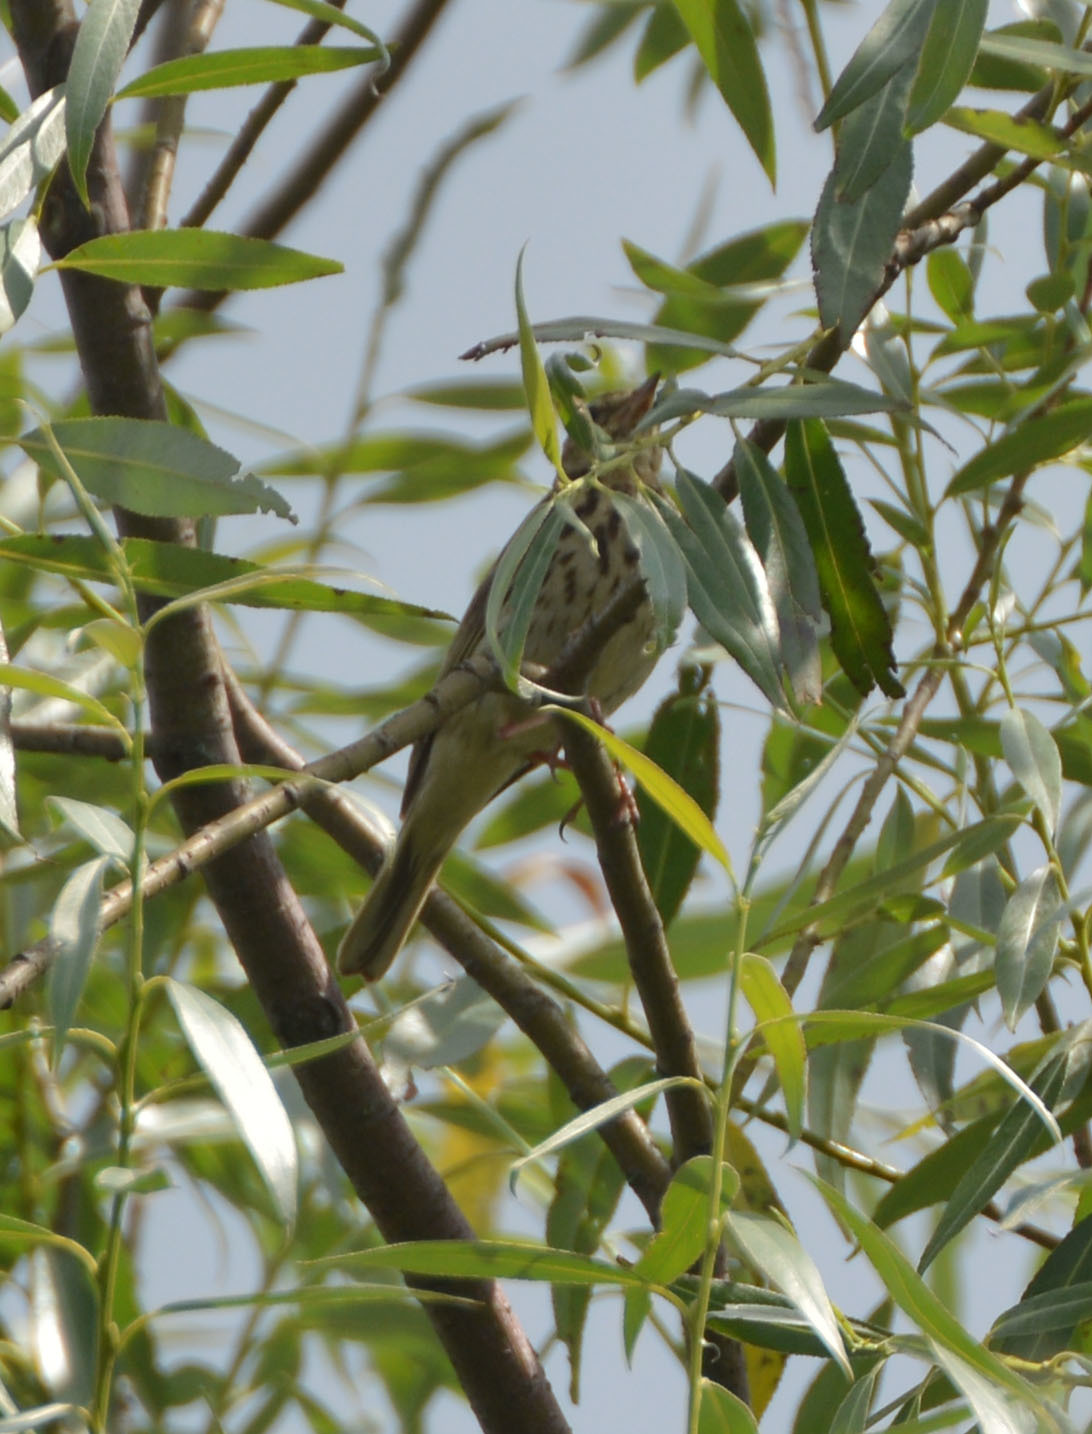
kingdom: Animalia
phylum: Chordata
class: Aves
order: Passeriformes
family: Motacillidae
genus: Anthus
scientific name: Anthus trivialis
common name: Tree pipit
